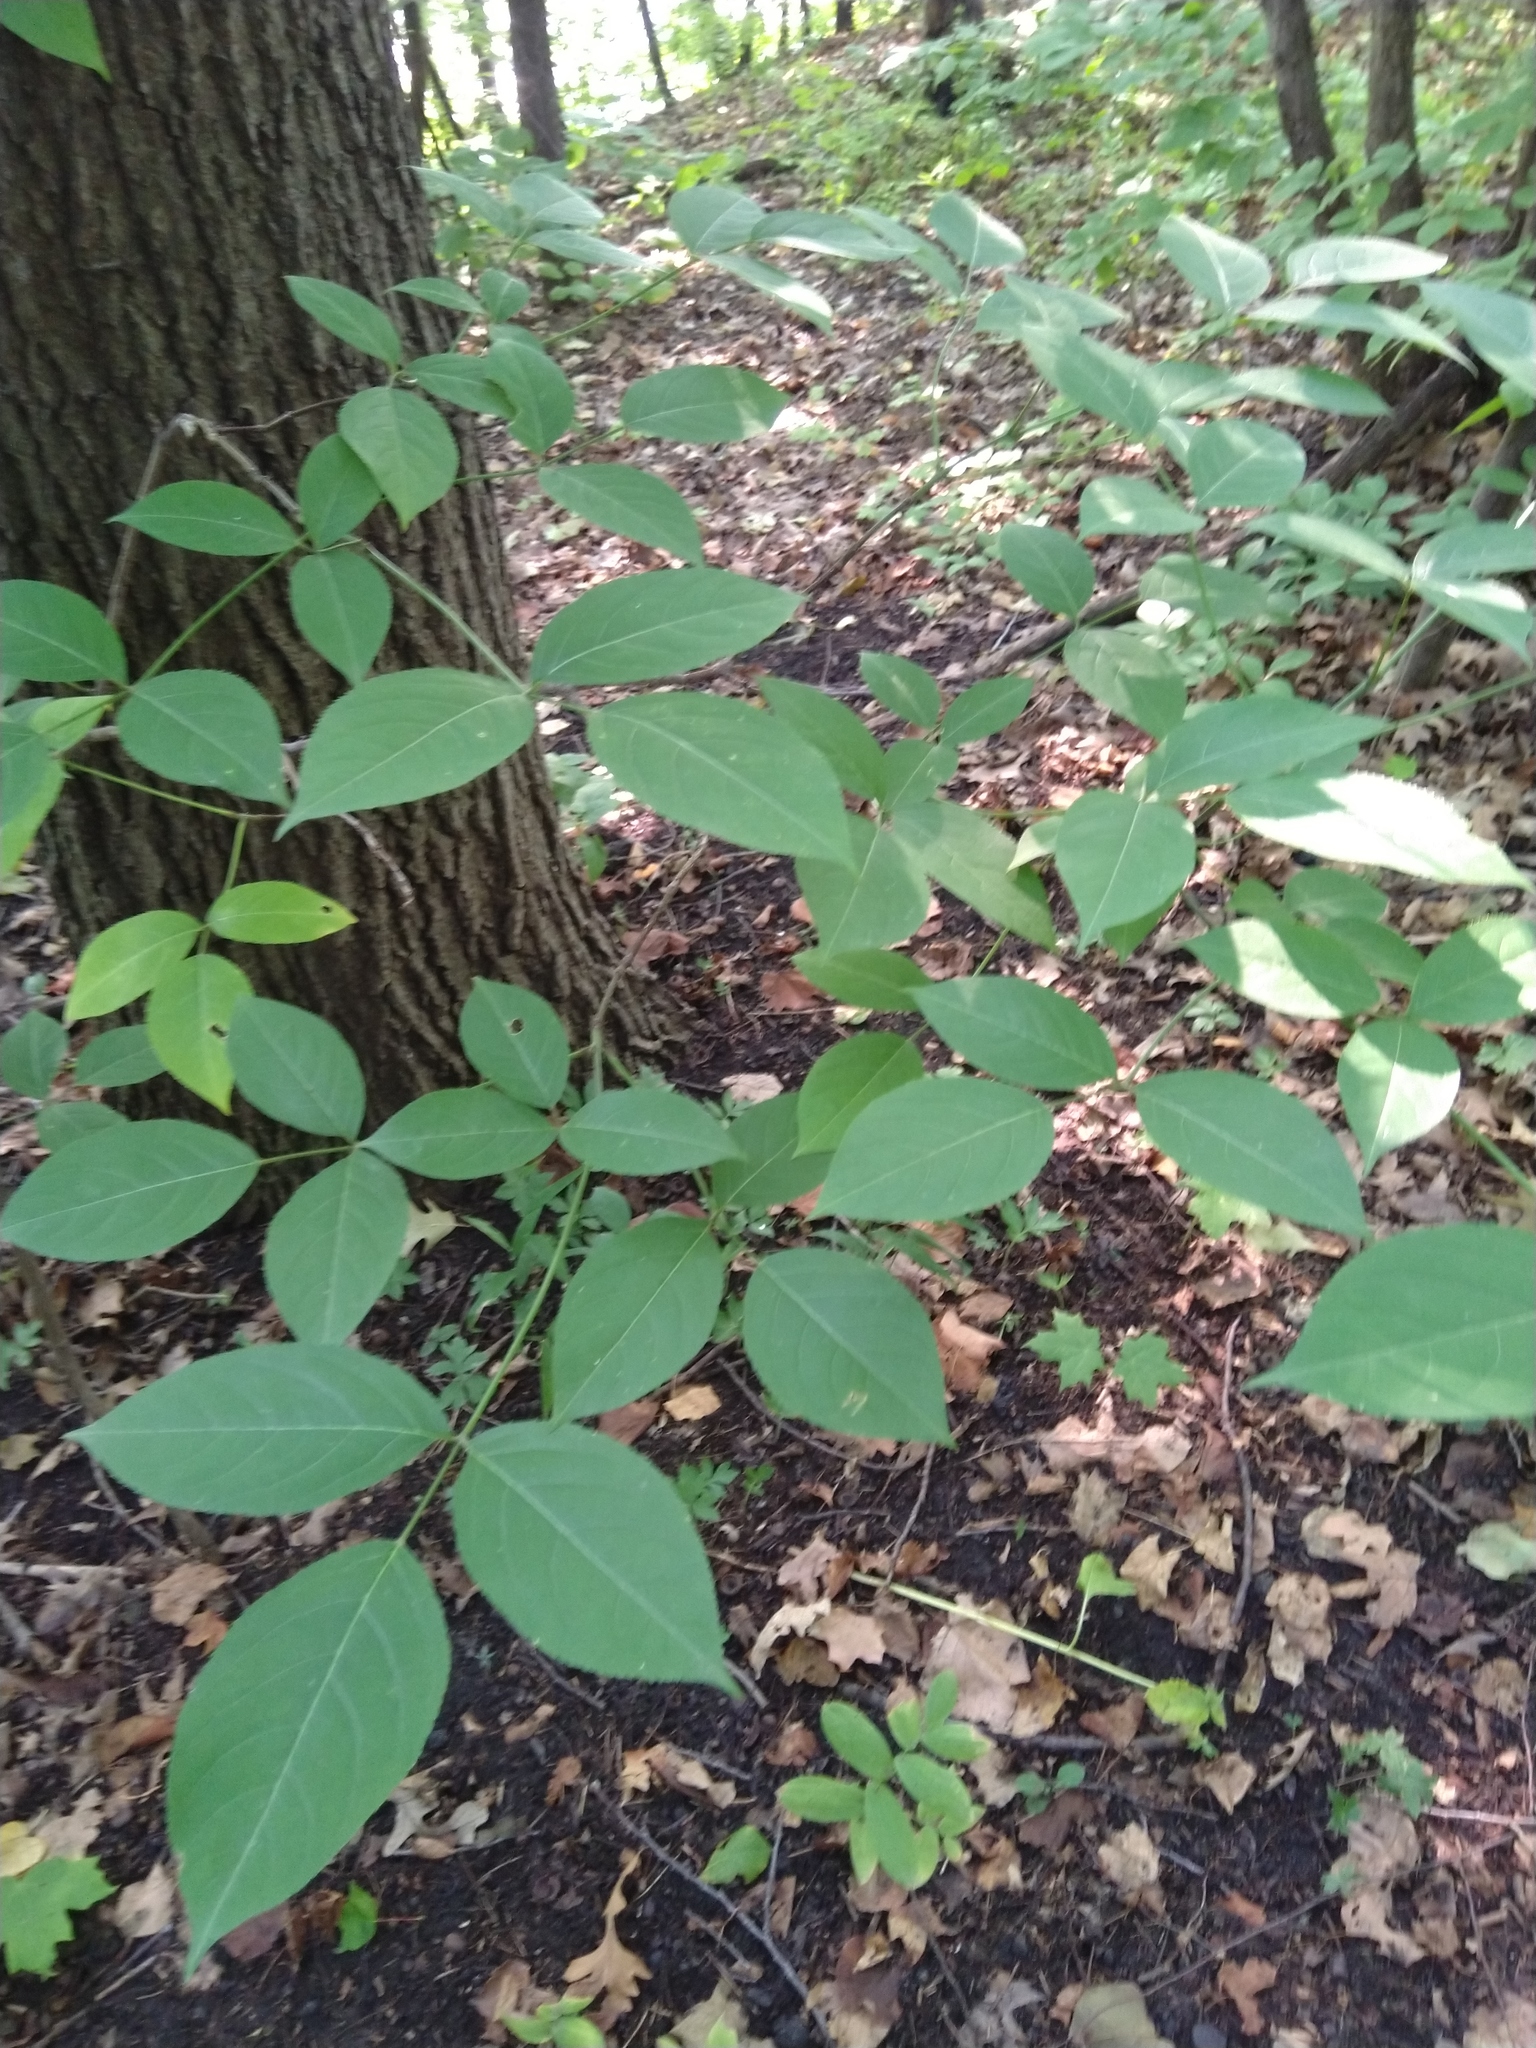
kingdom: Plantae
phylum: Tracheophyta
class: Magnoliopsida
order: Crossosomatales
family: Staphyleaceae
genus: Staphylea
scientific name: Staphylea trifolia
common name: American bladdernut
